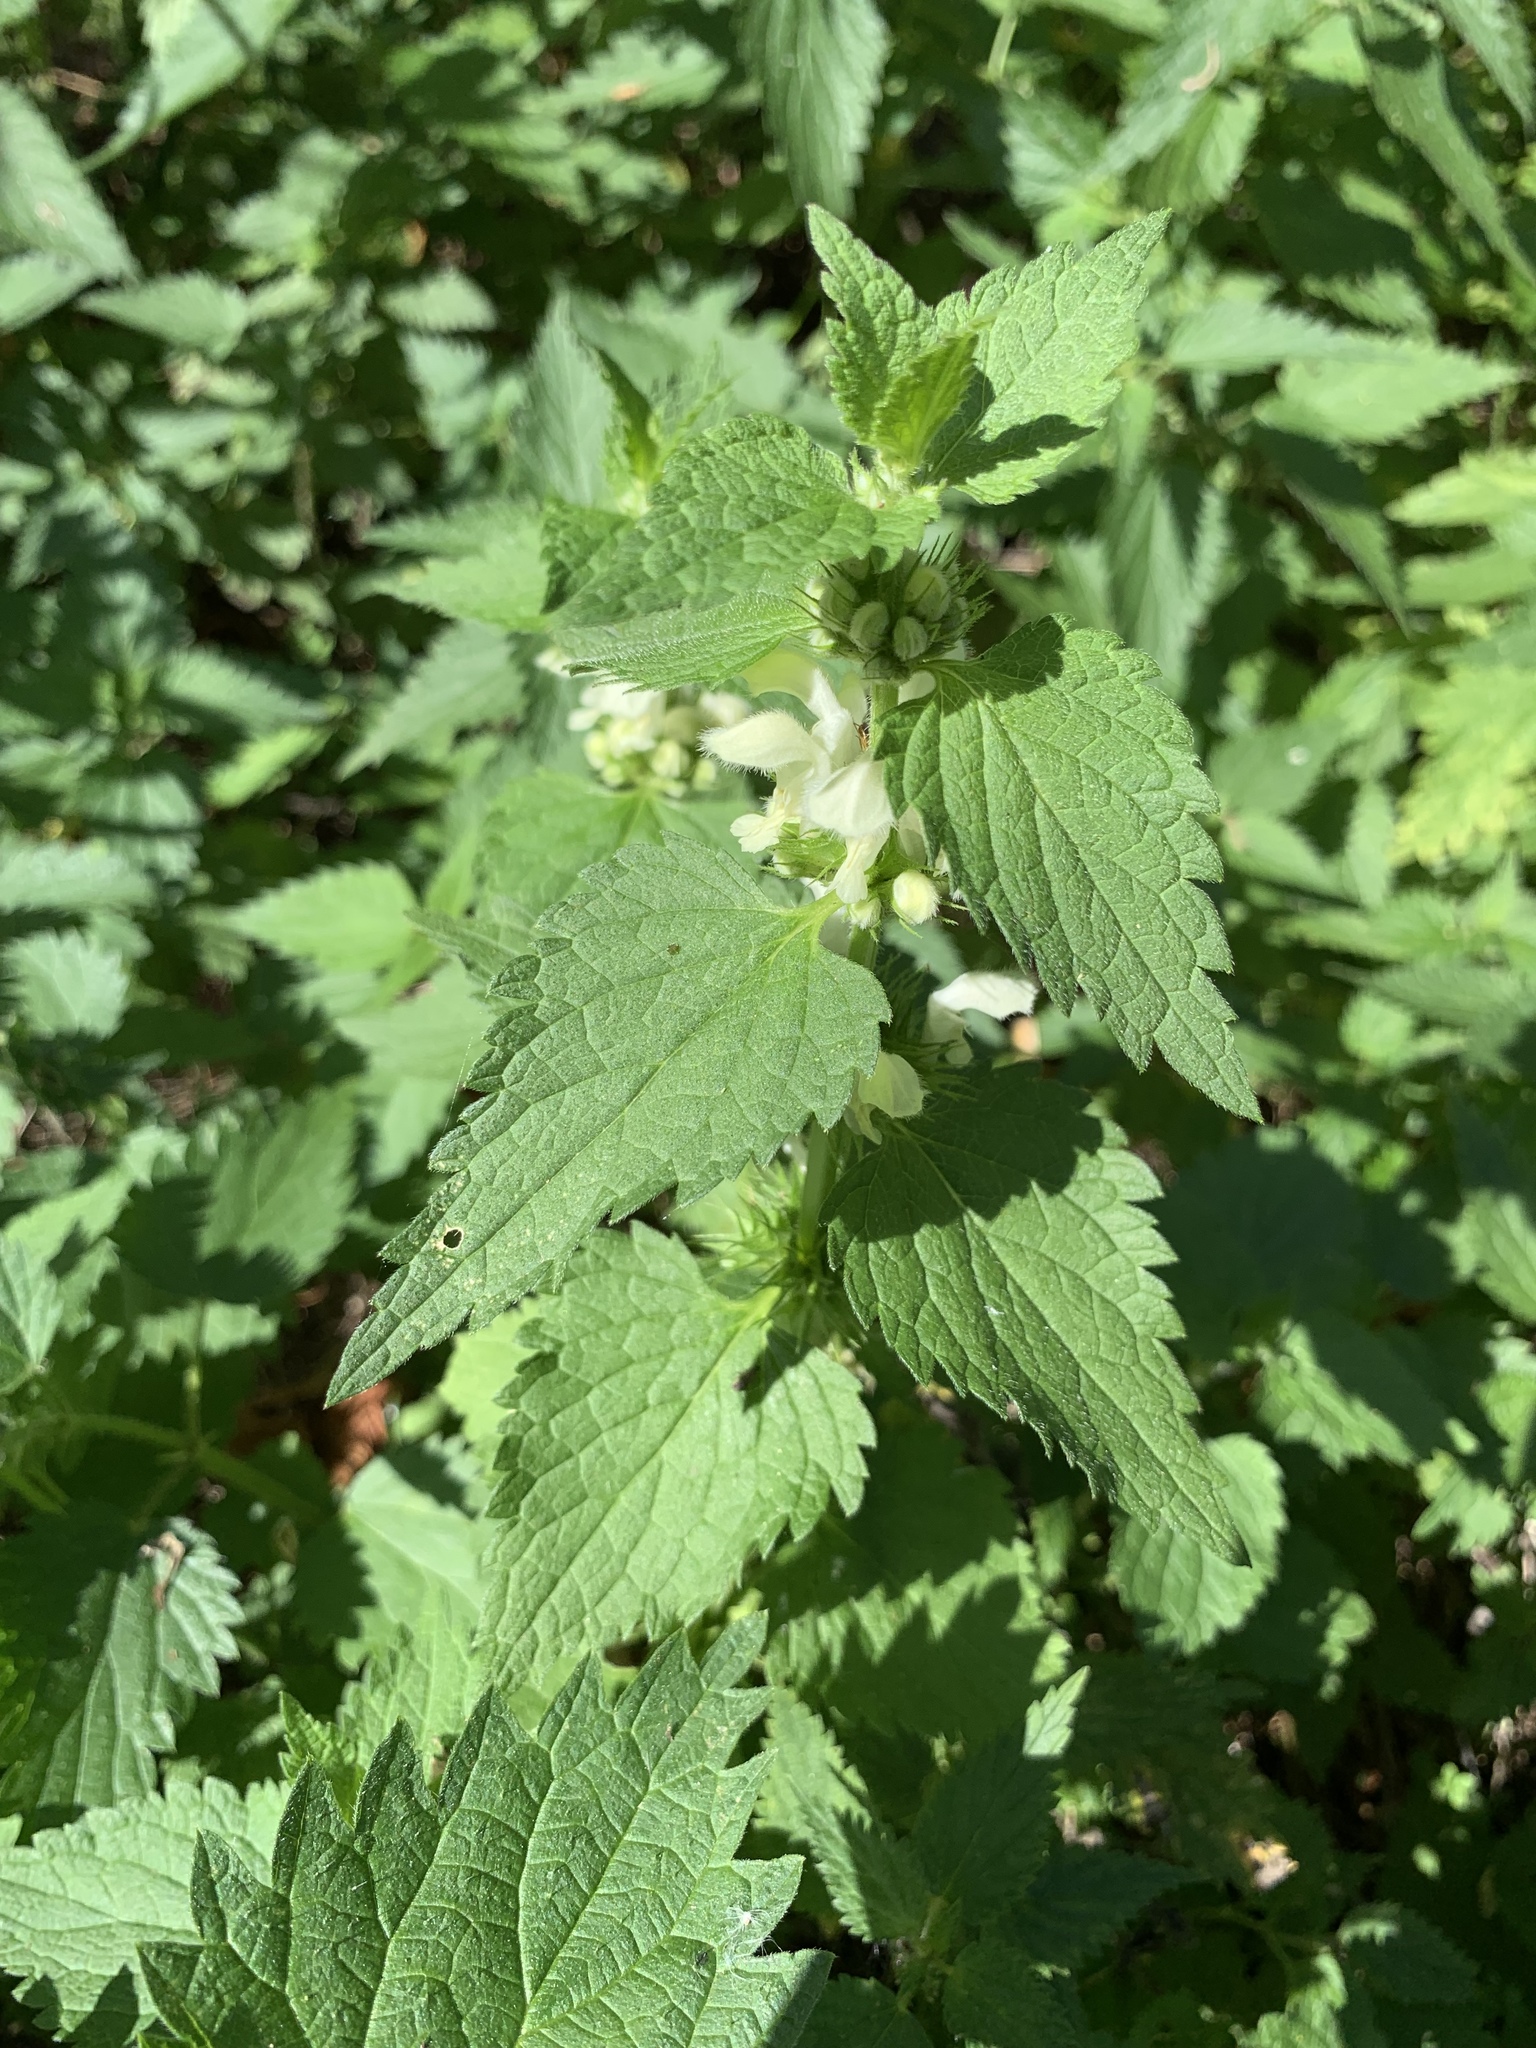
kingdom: Plantae
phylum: Tracheophyta
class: Magnoliopsida
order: Lamiales
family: Lamiaceae
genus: Lamium
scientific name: Lamium album
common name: White dead-nettle
